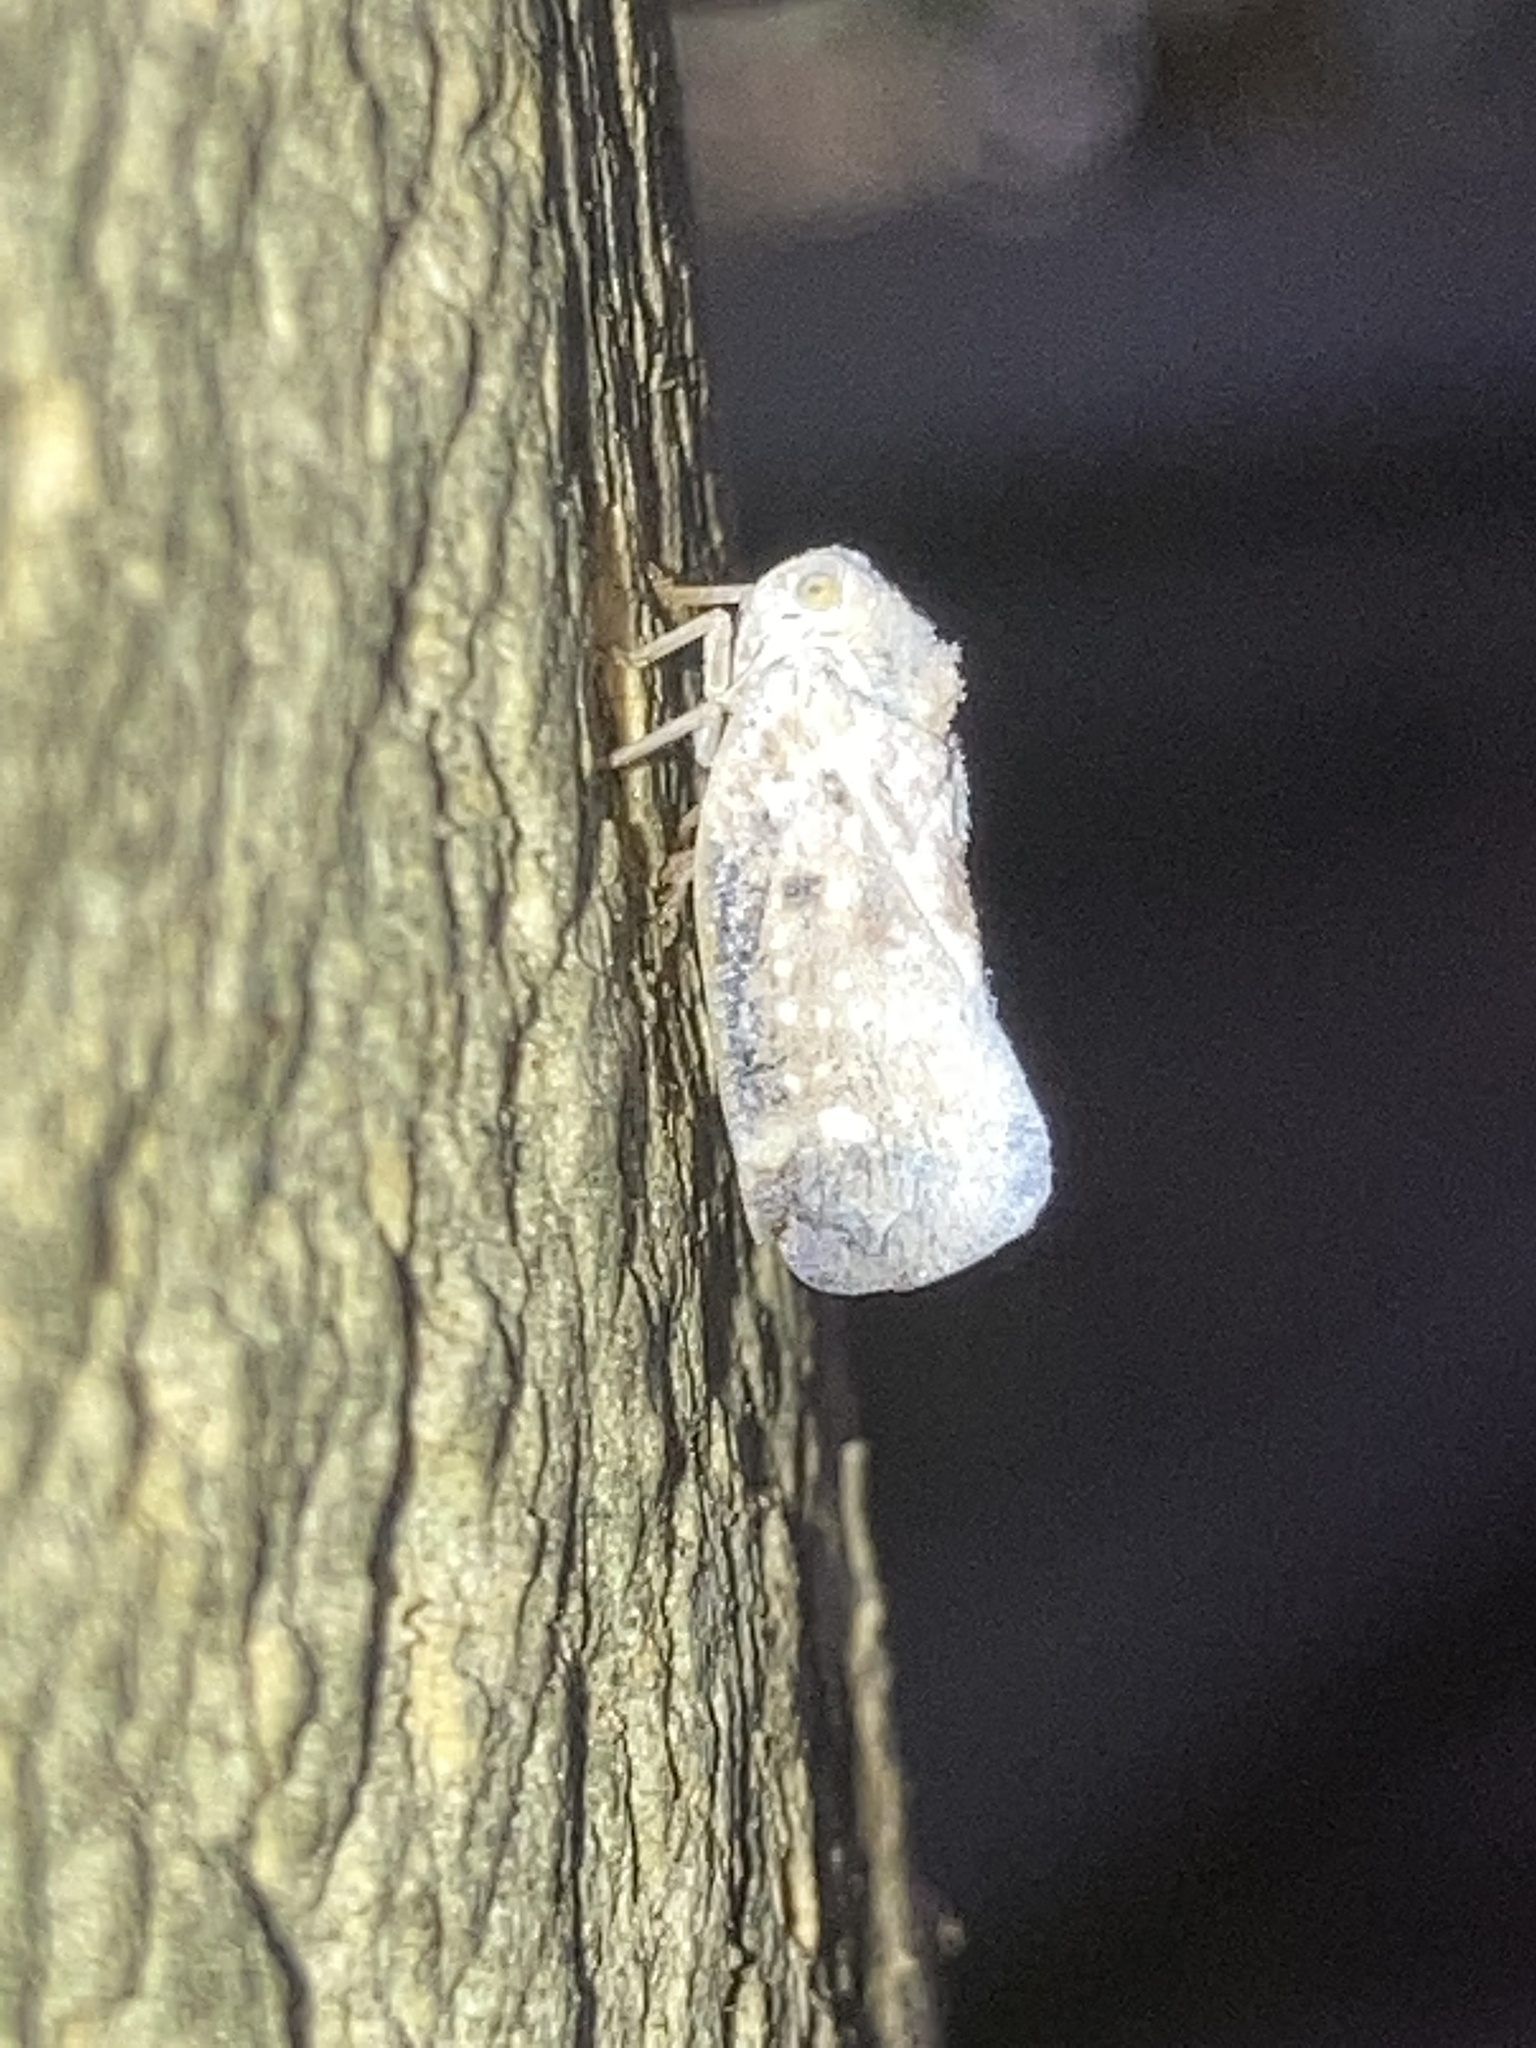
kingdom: Animalia
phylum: Arthropoda
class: Insecta
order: Hemiptera
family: Flatidae
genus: Metcalfa
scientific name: Metcalfa pruinosa
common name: Citrus flatid planthopper
